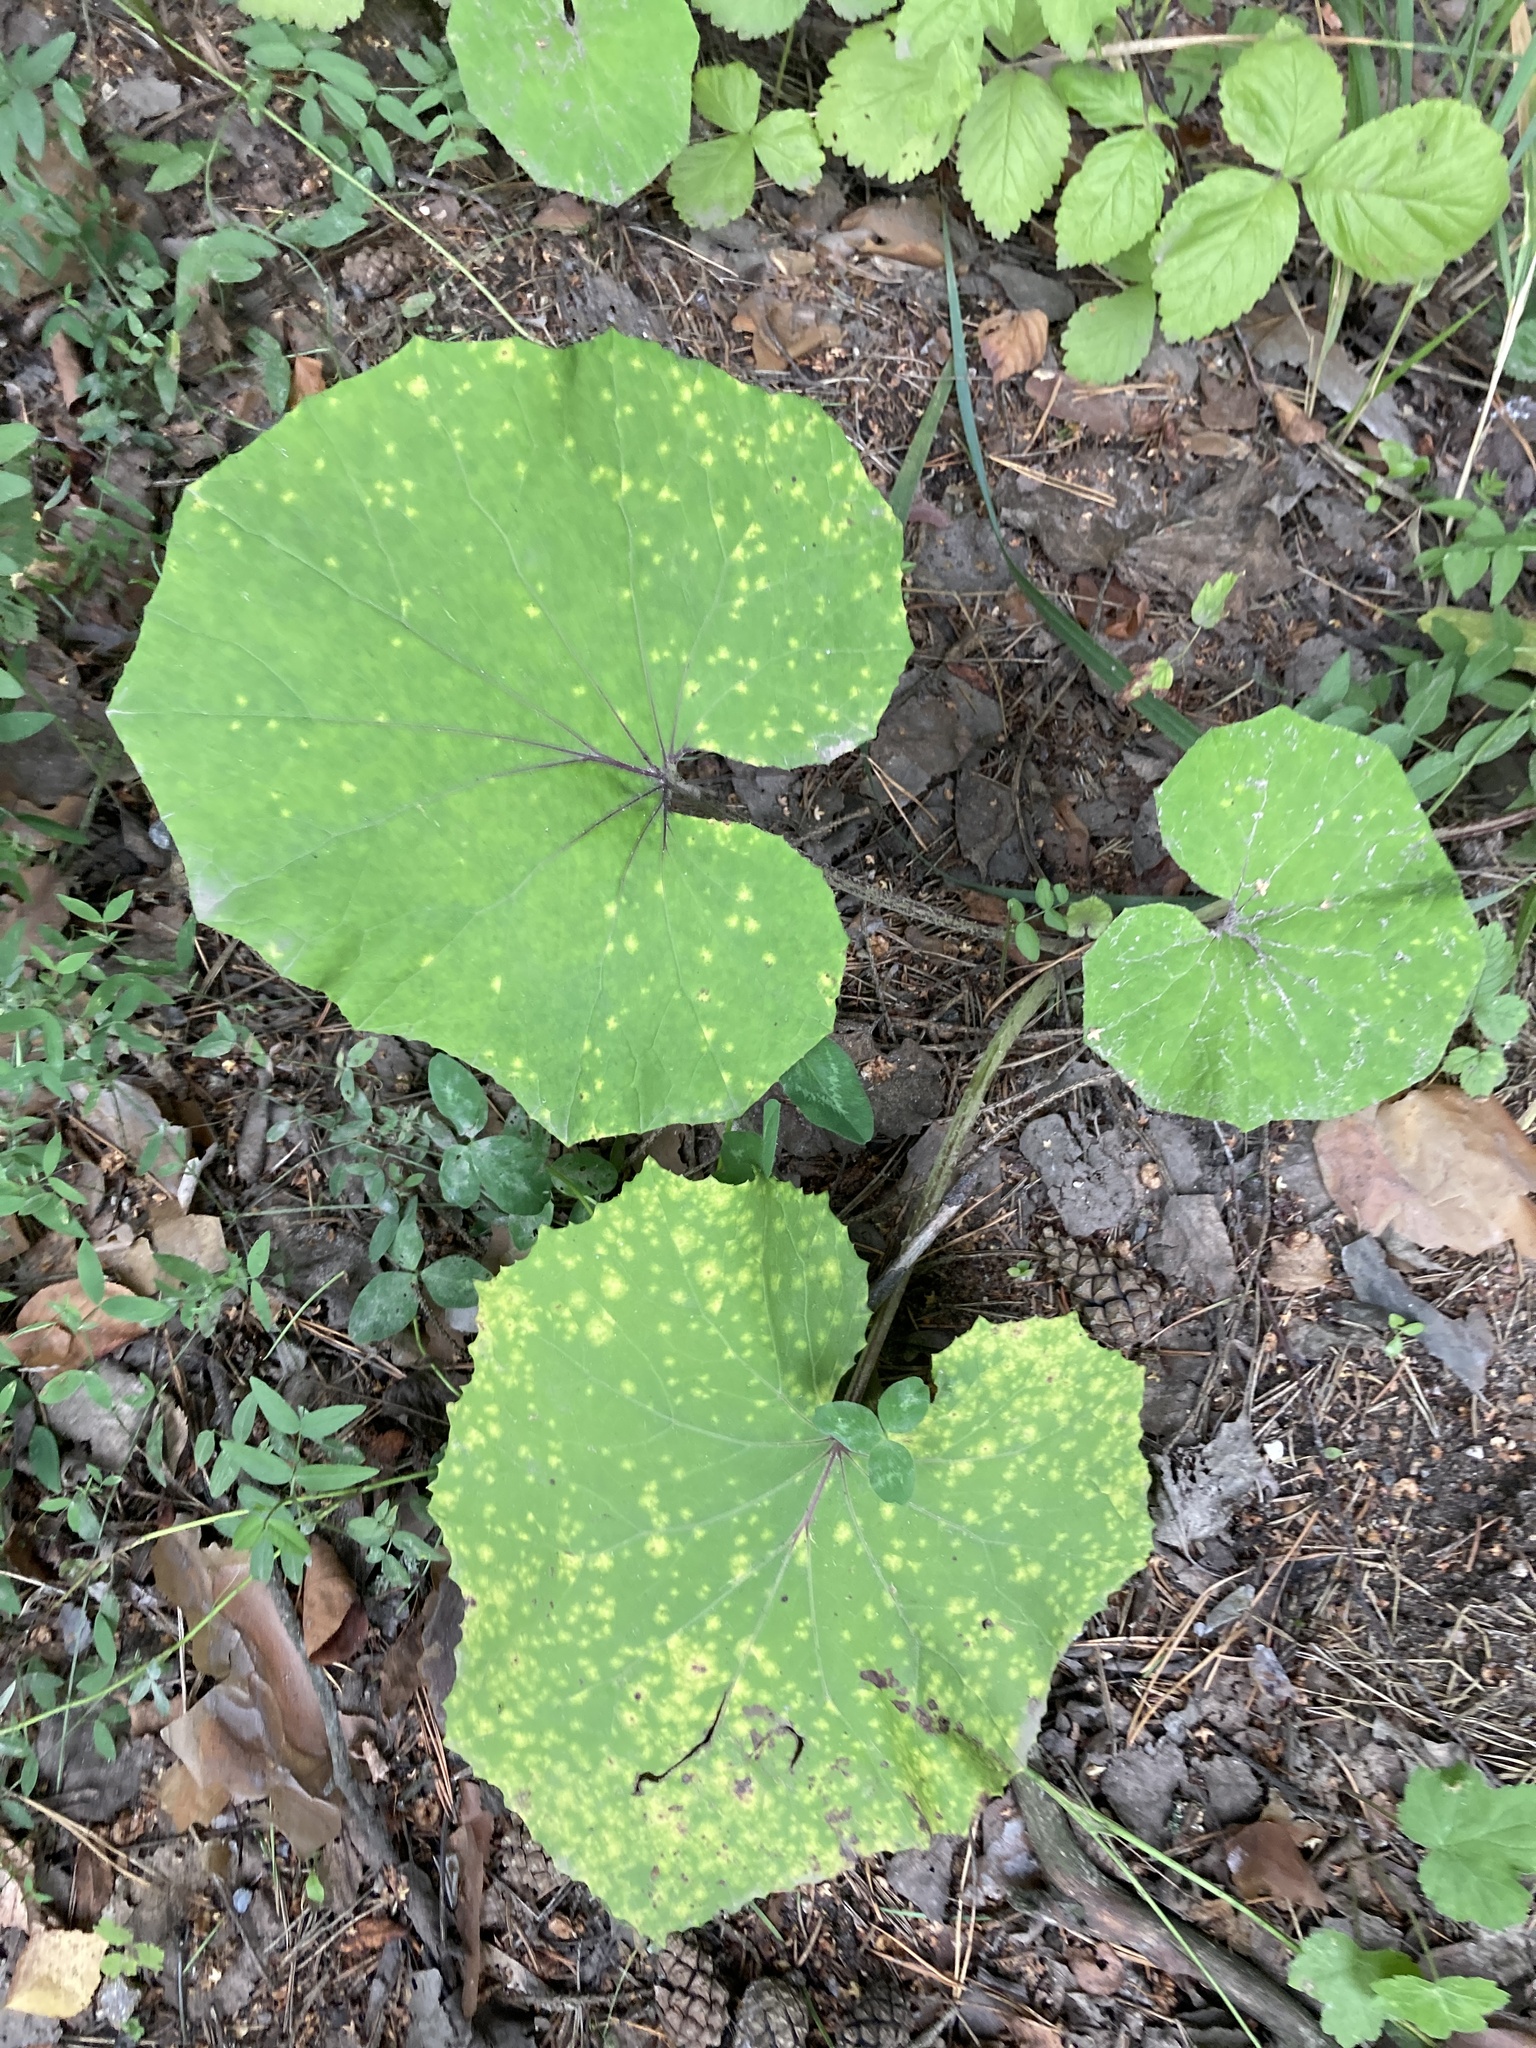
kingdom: Plantae
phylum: Tracheophyta
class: Magnoliopsida
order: Asterales
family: Asteraceae
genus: Tussilago
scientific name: Tussilago farfara
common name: Coltsfoot
